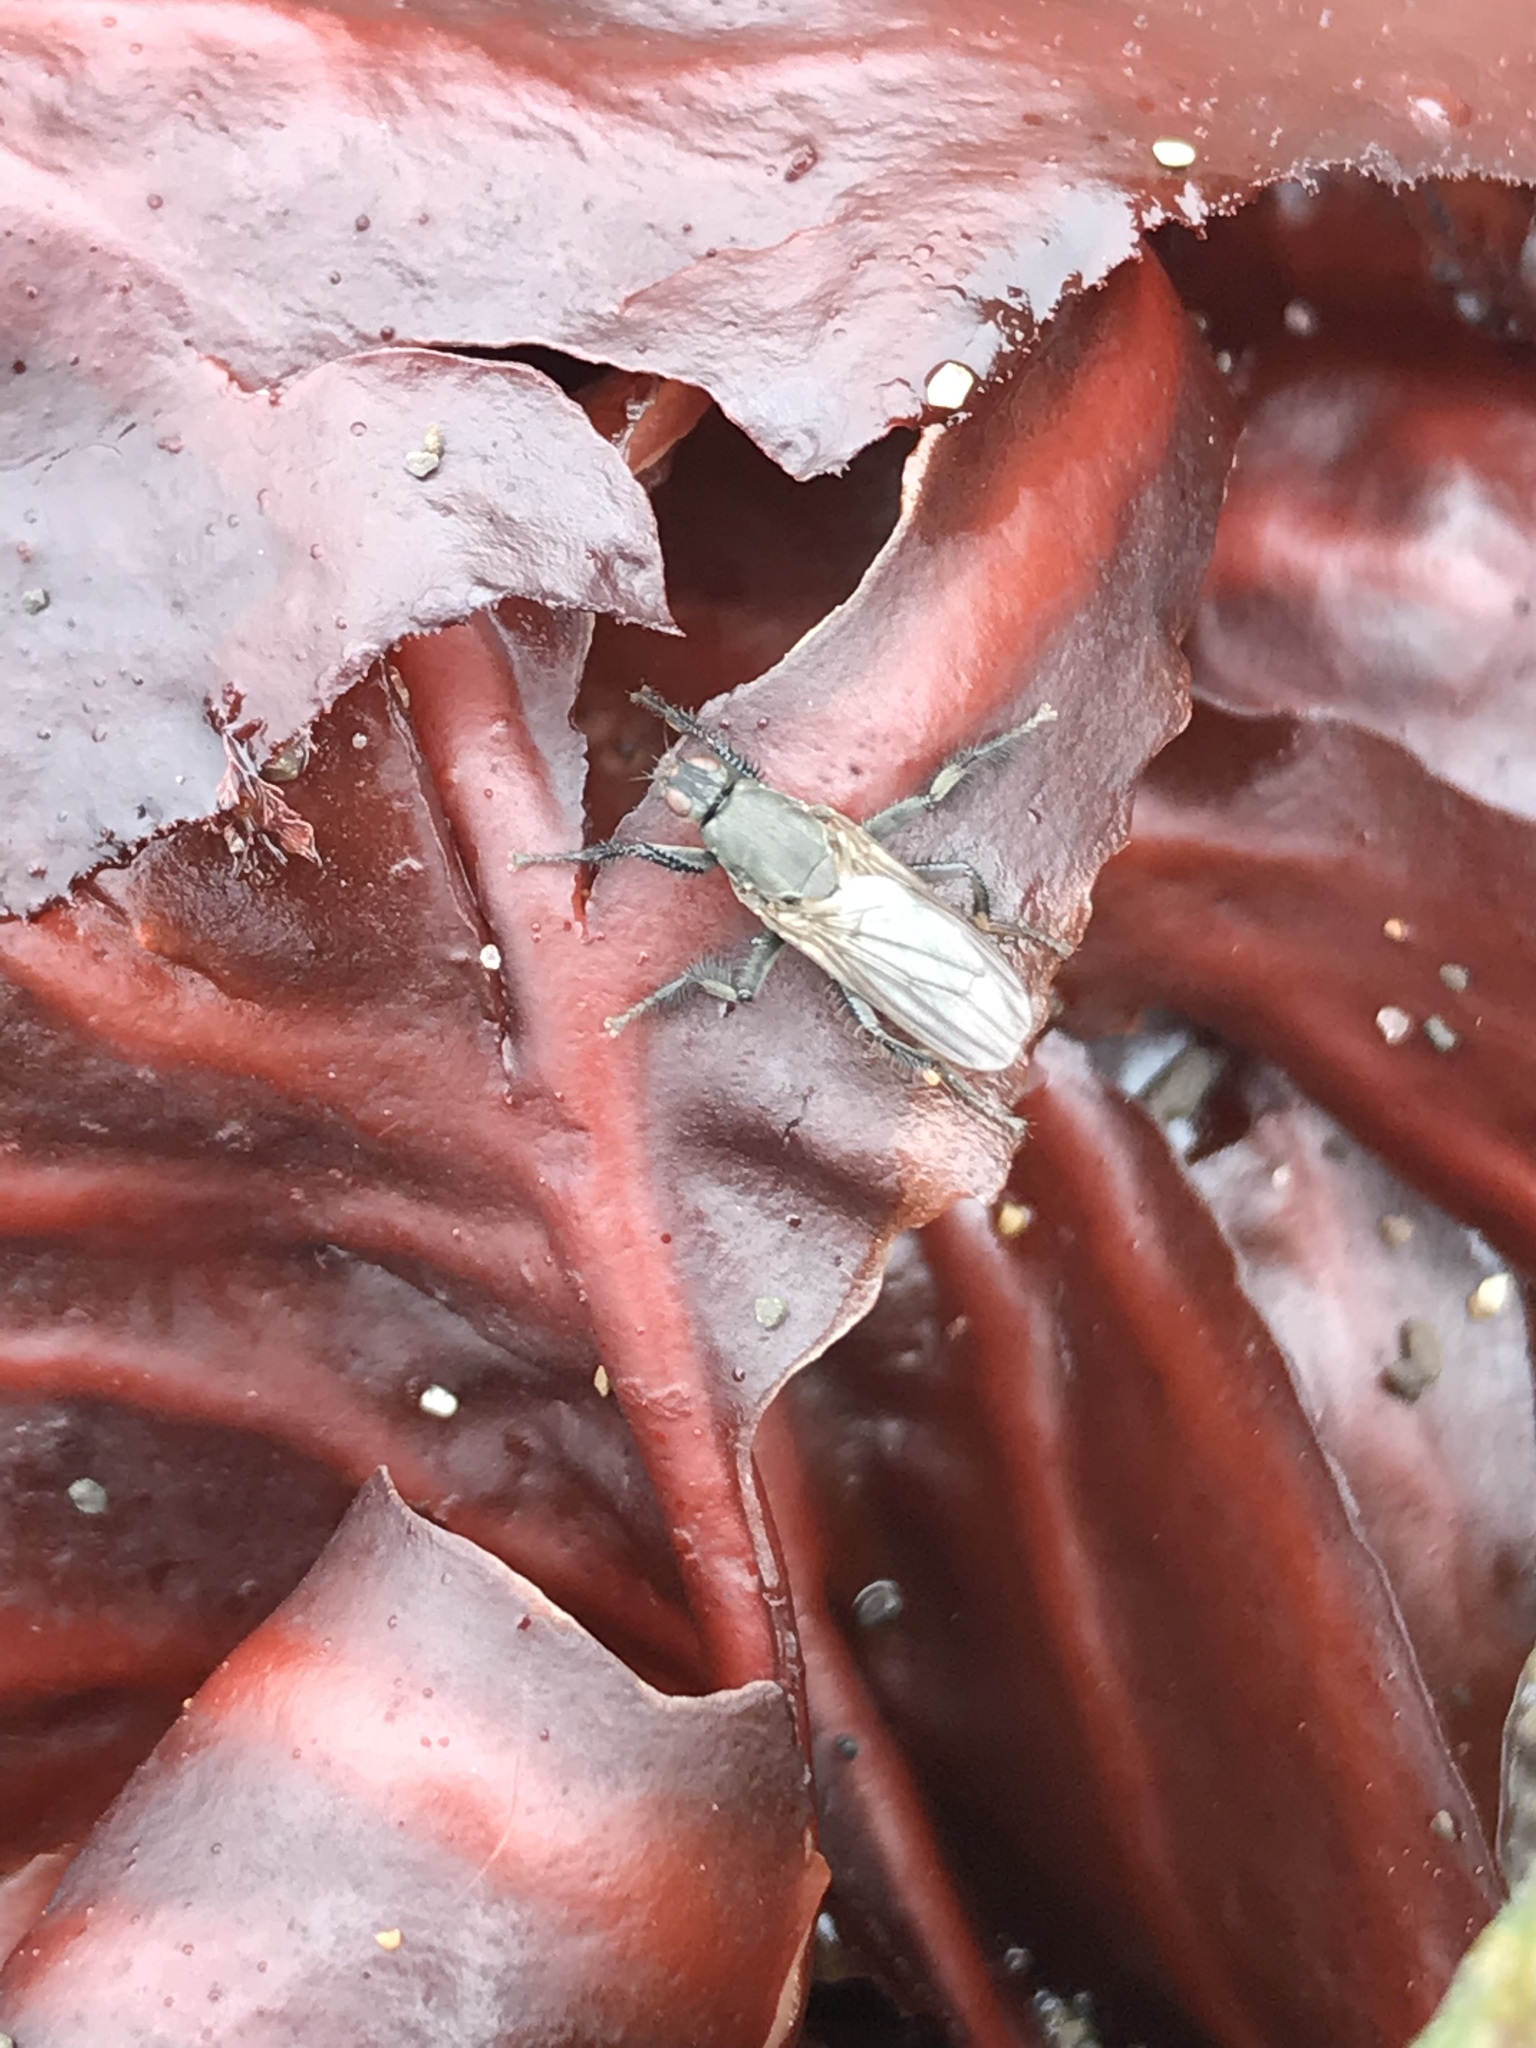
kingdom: Animalia
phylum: Arthropoda
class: Insecta
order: Diptera
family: Coelopidae
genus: Coelopa
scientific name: Coelopa vanduzeei
